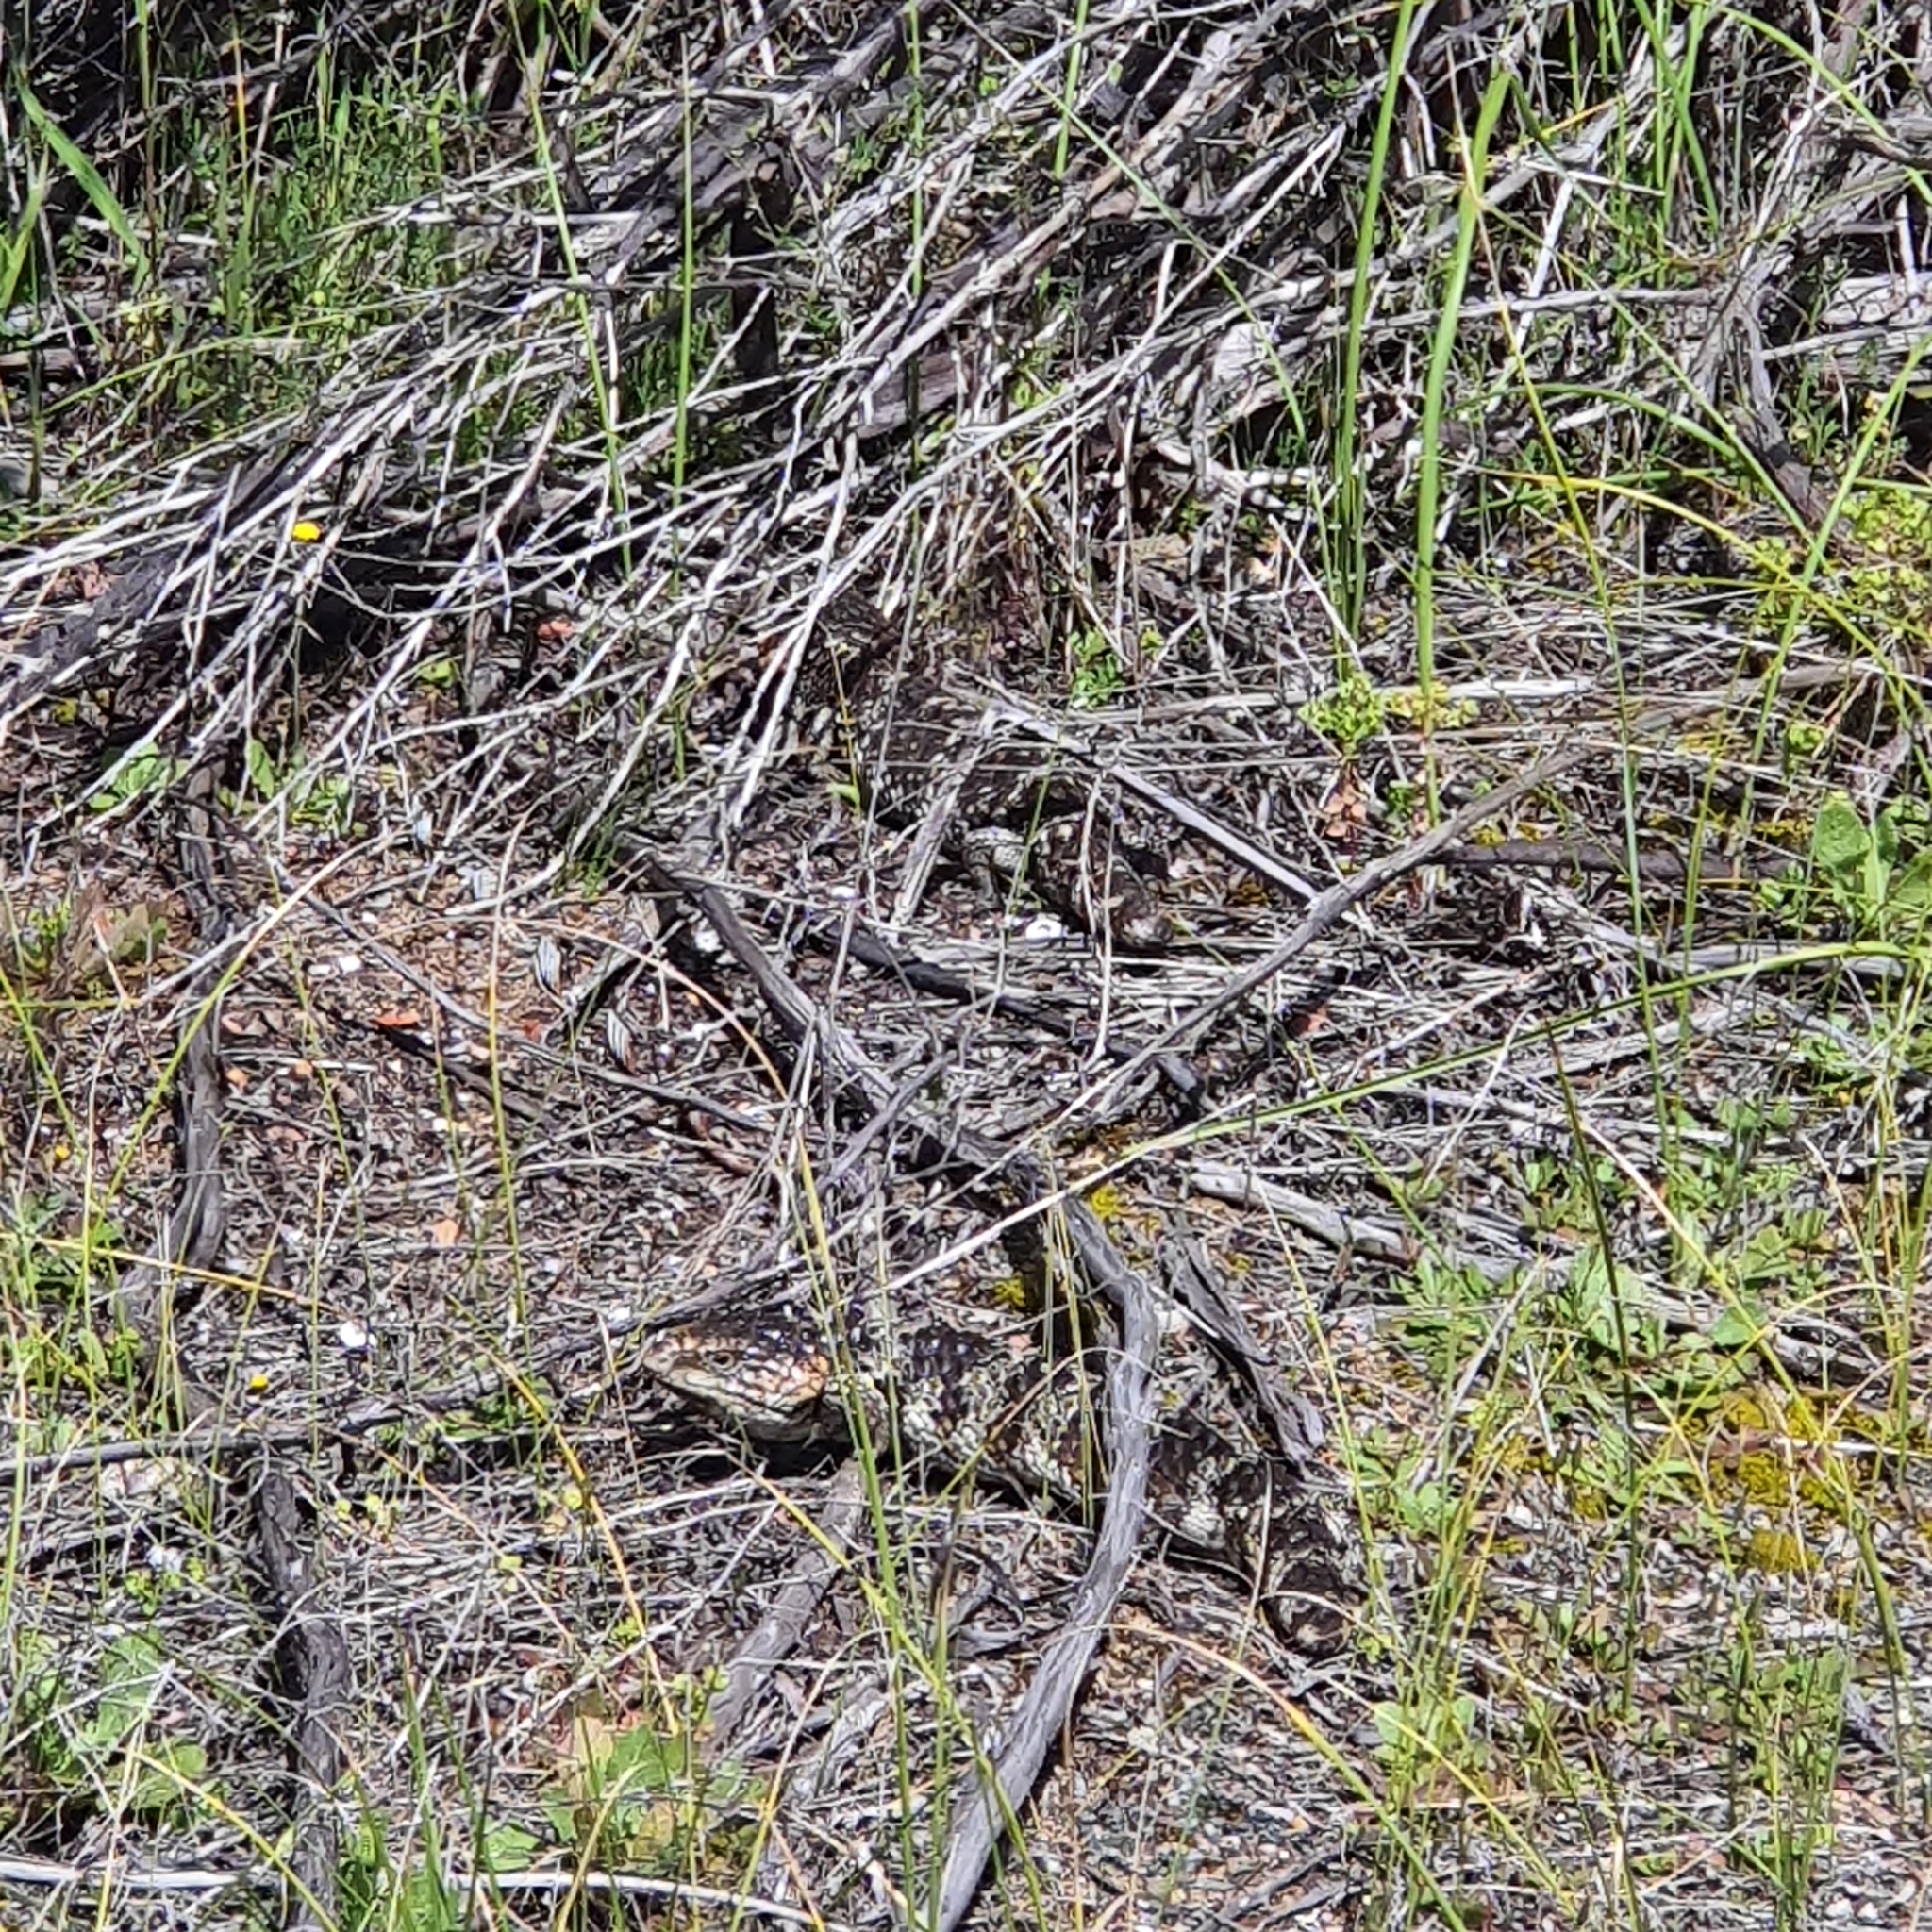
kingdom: Animalia
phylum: Chordata
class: Squamata
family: Scincidae
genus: Tiliqua
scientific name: Tiliqua rugosa
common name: Pinecone lizard
